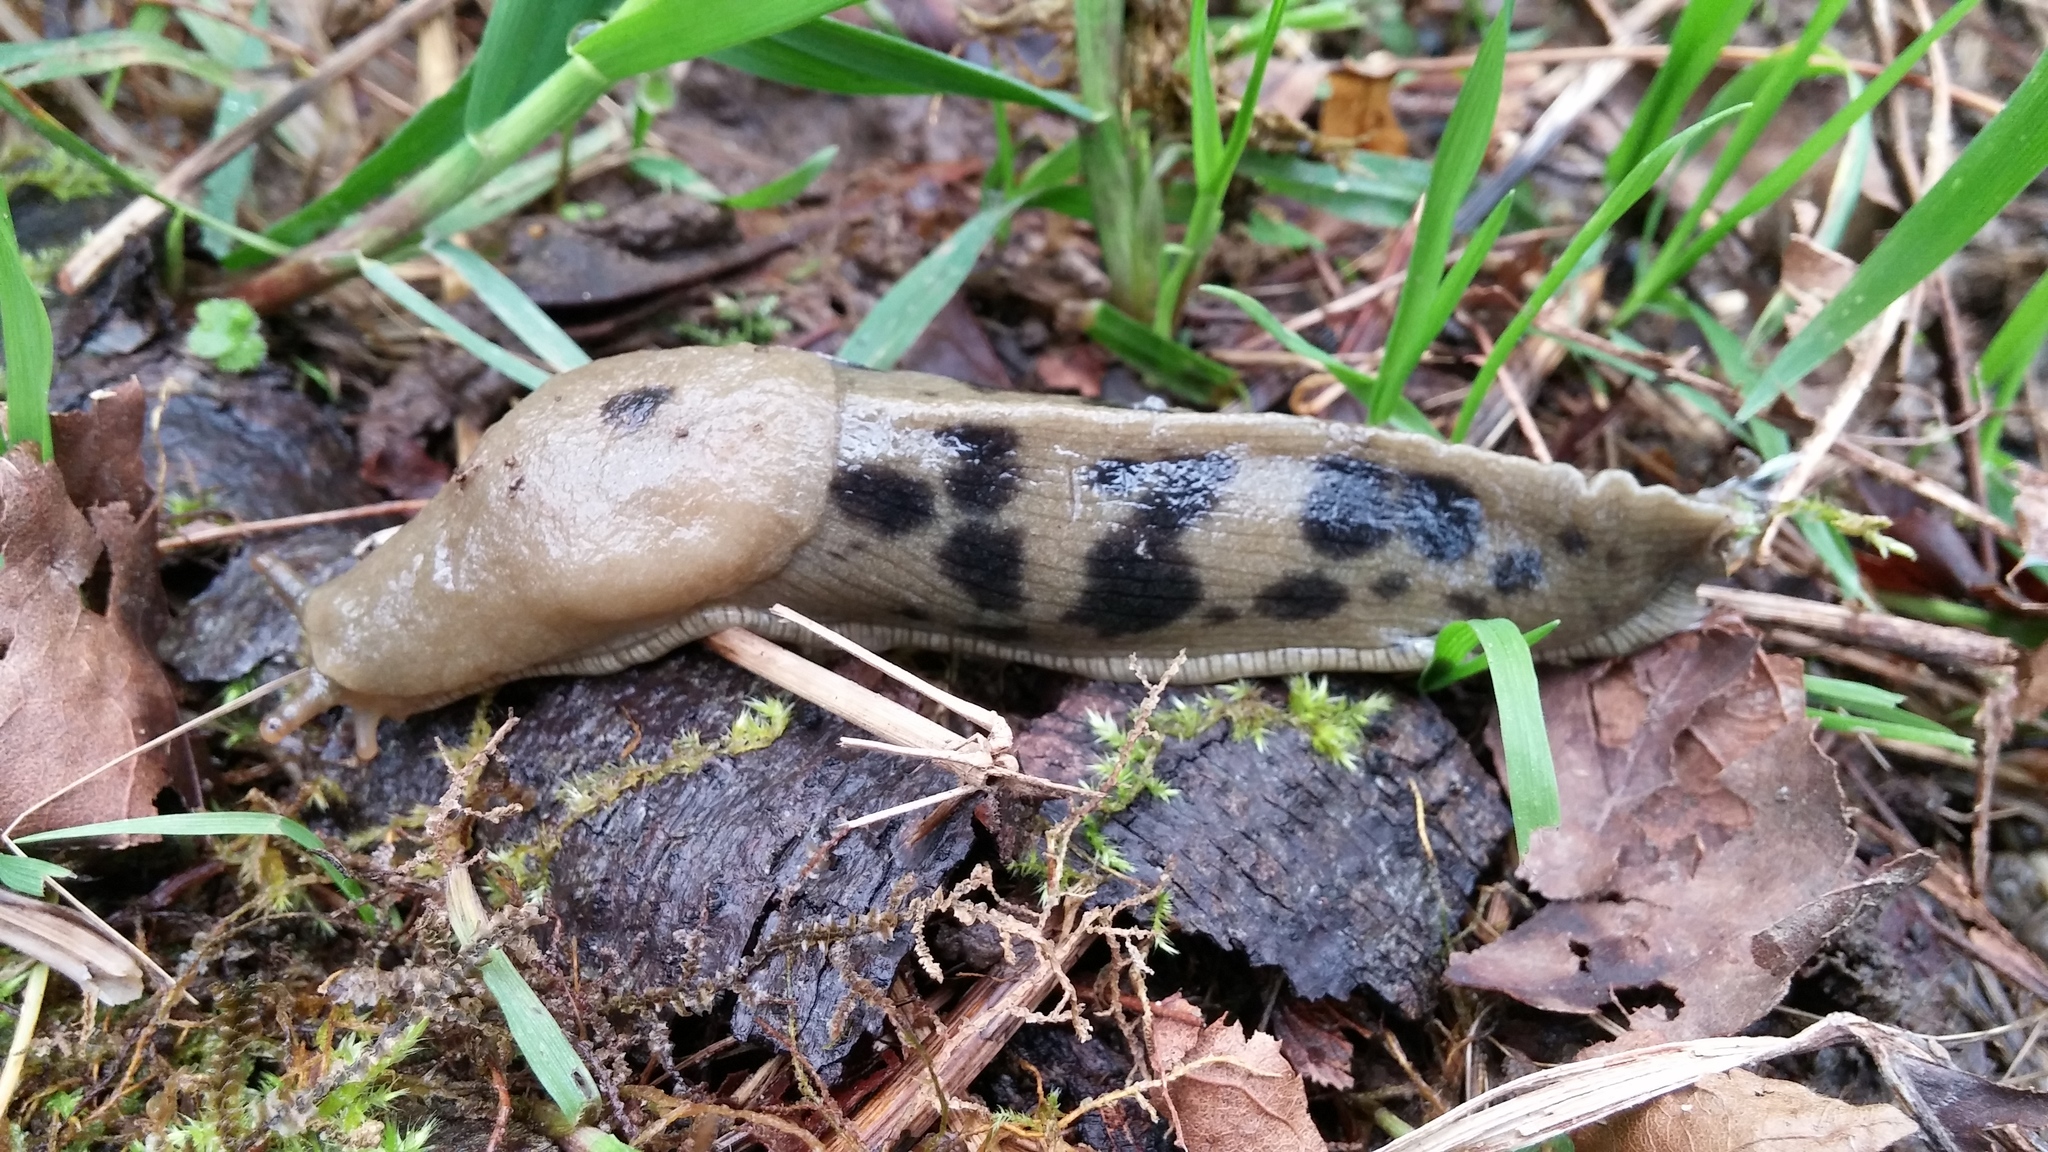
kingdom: Animalia
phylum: Mollusca
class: Gastropoda
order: Stylommatophora
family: Ariolimacidae
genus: Ariolimax
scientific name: Ariolimax columbianus
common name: Pacific banana slug
